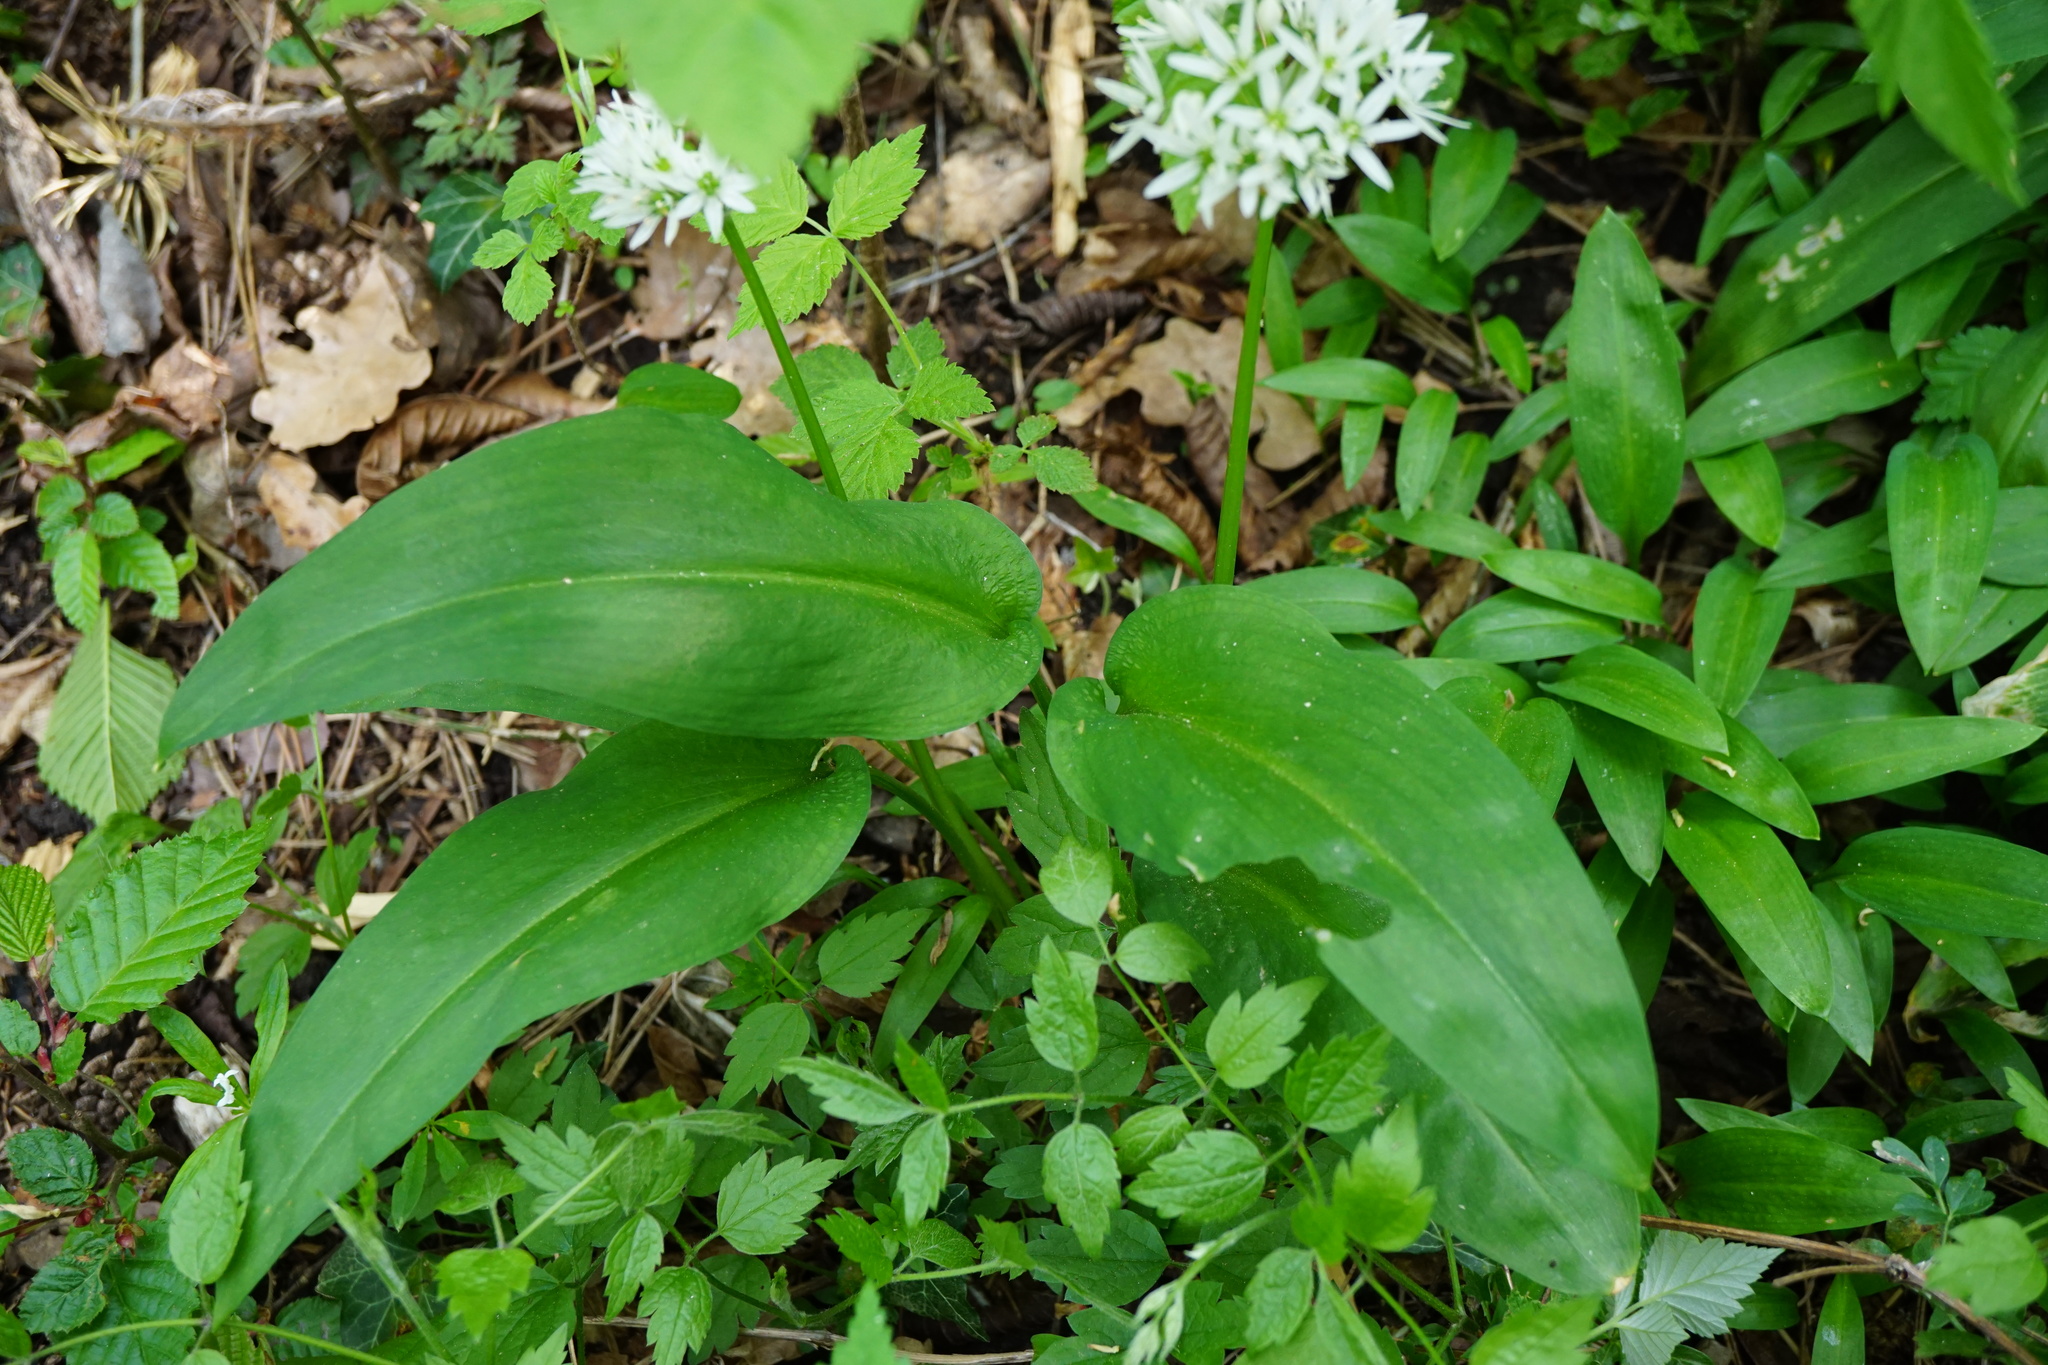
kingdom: Plantae
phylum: Tracheophyta
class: Liliopsida
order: Asparagales
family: Amaryllidaceae
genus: Allium
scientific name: Allium ursinum
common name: Ramsons
